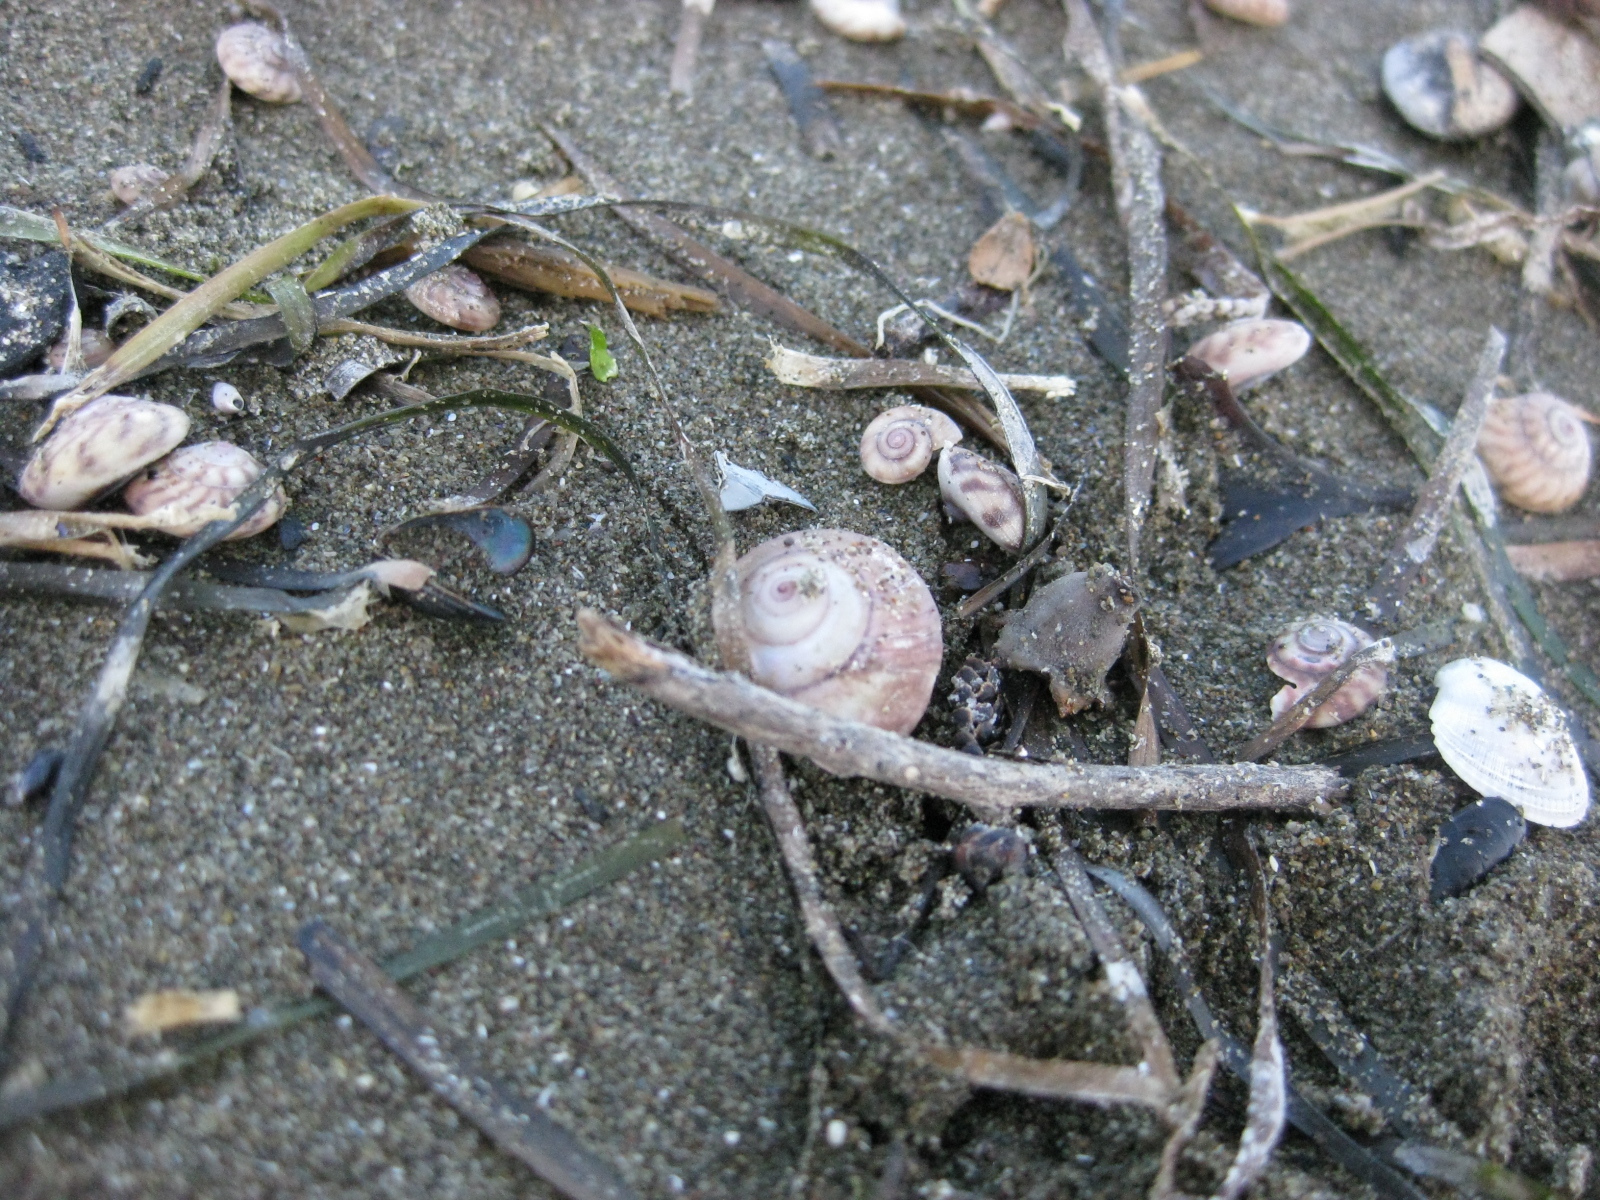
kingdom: Animalia
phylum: Mollusca
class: Gastropoda
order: Trochida
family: Trochidae
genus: Zethalia
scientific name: Zethalia zelandica
